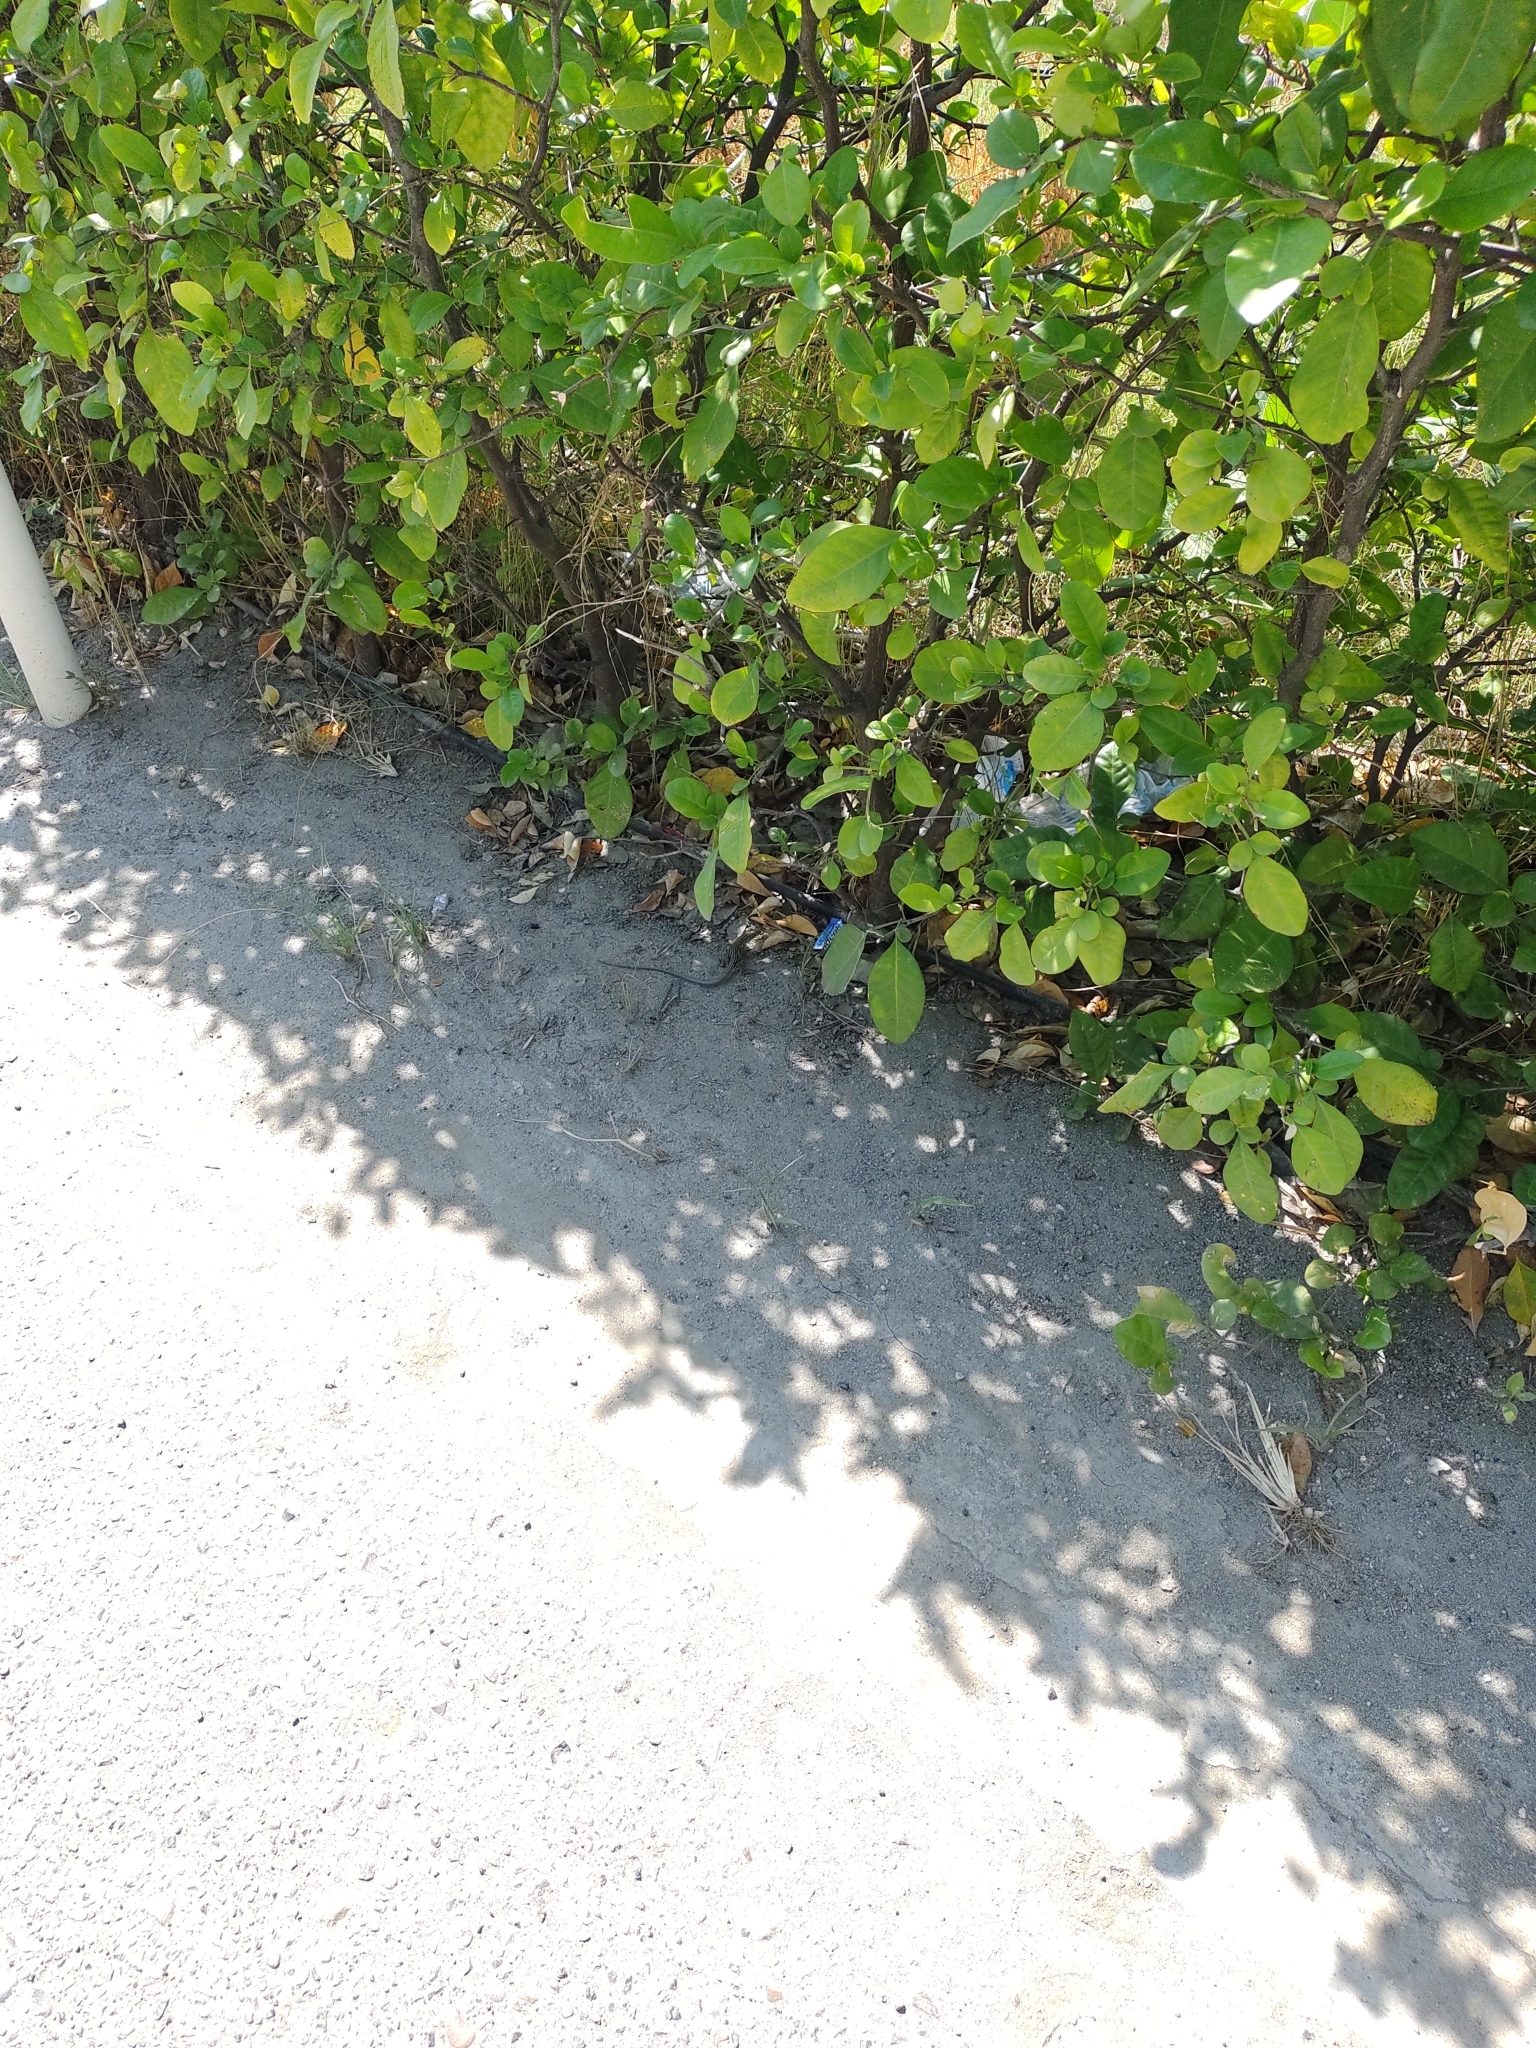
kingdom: Animalia
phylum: Chordata
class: Squamata
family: Teiidae
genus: Cnemidophorus
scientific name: Cnemidophorus gaigei
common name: Gaige’s rainbow lizard
